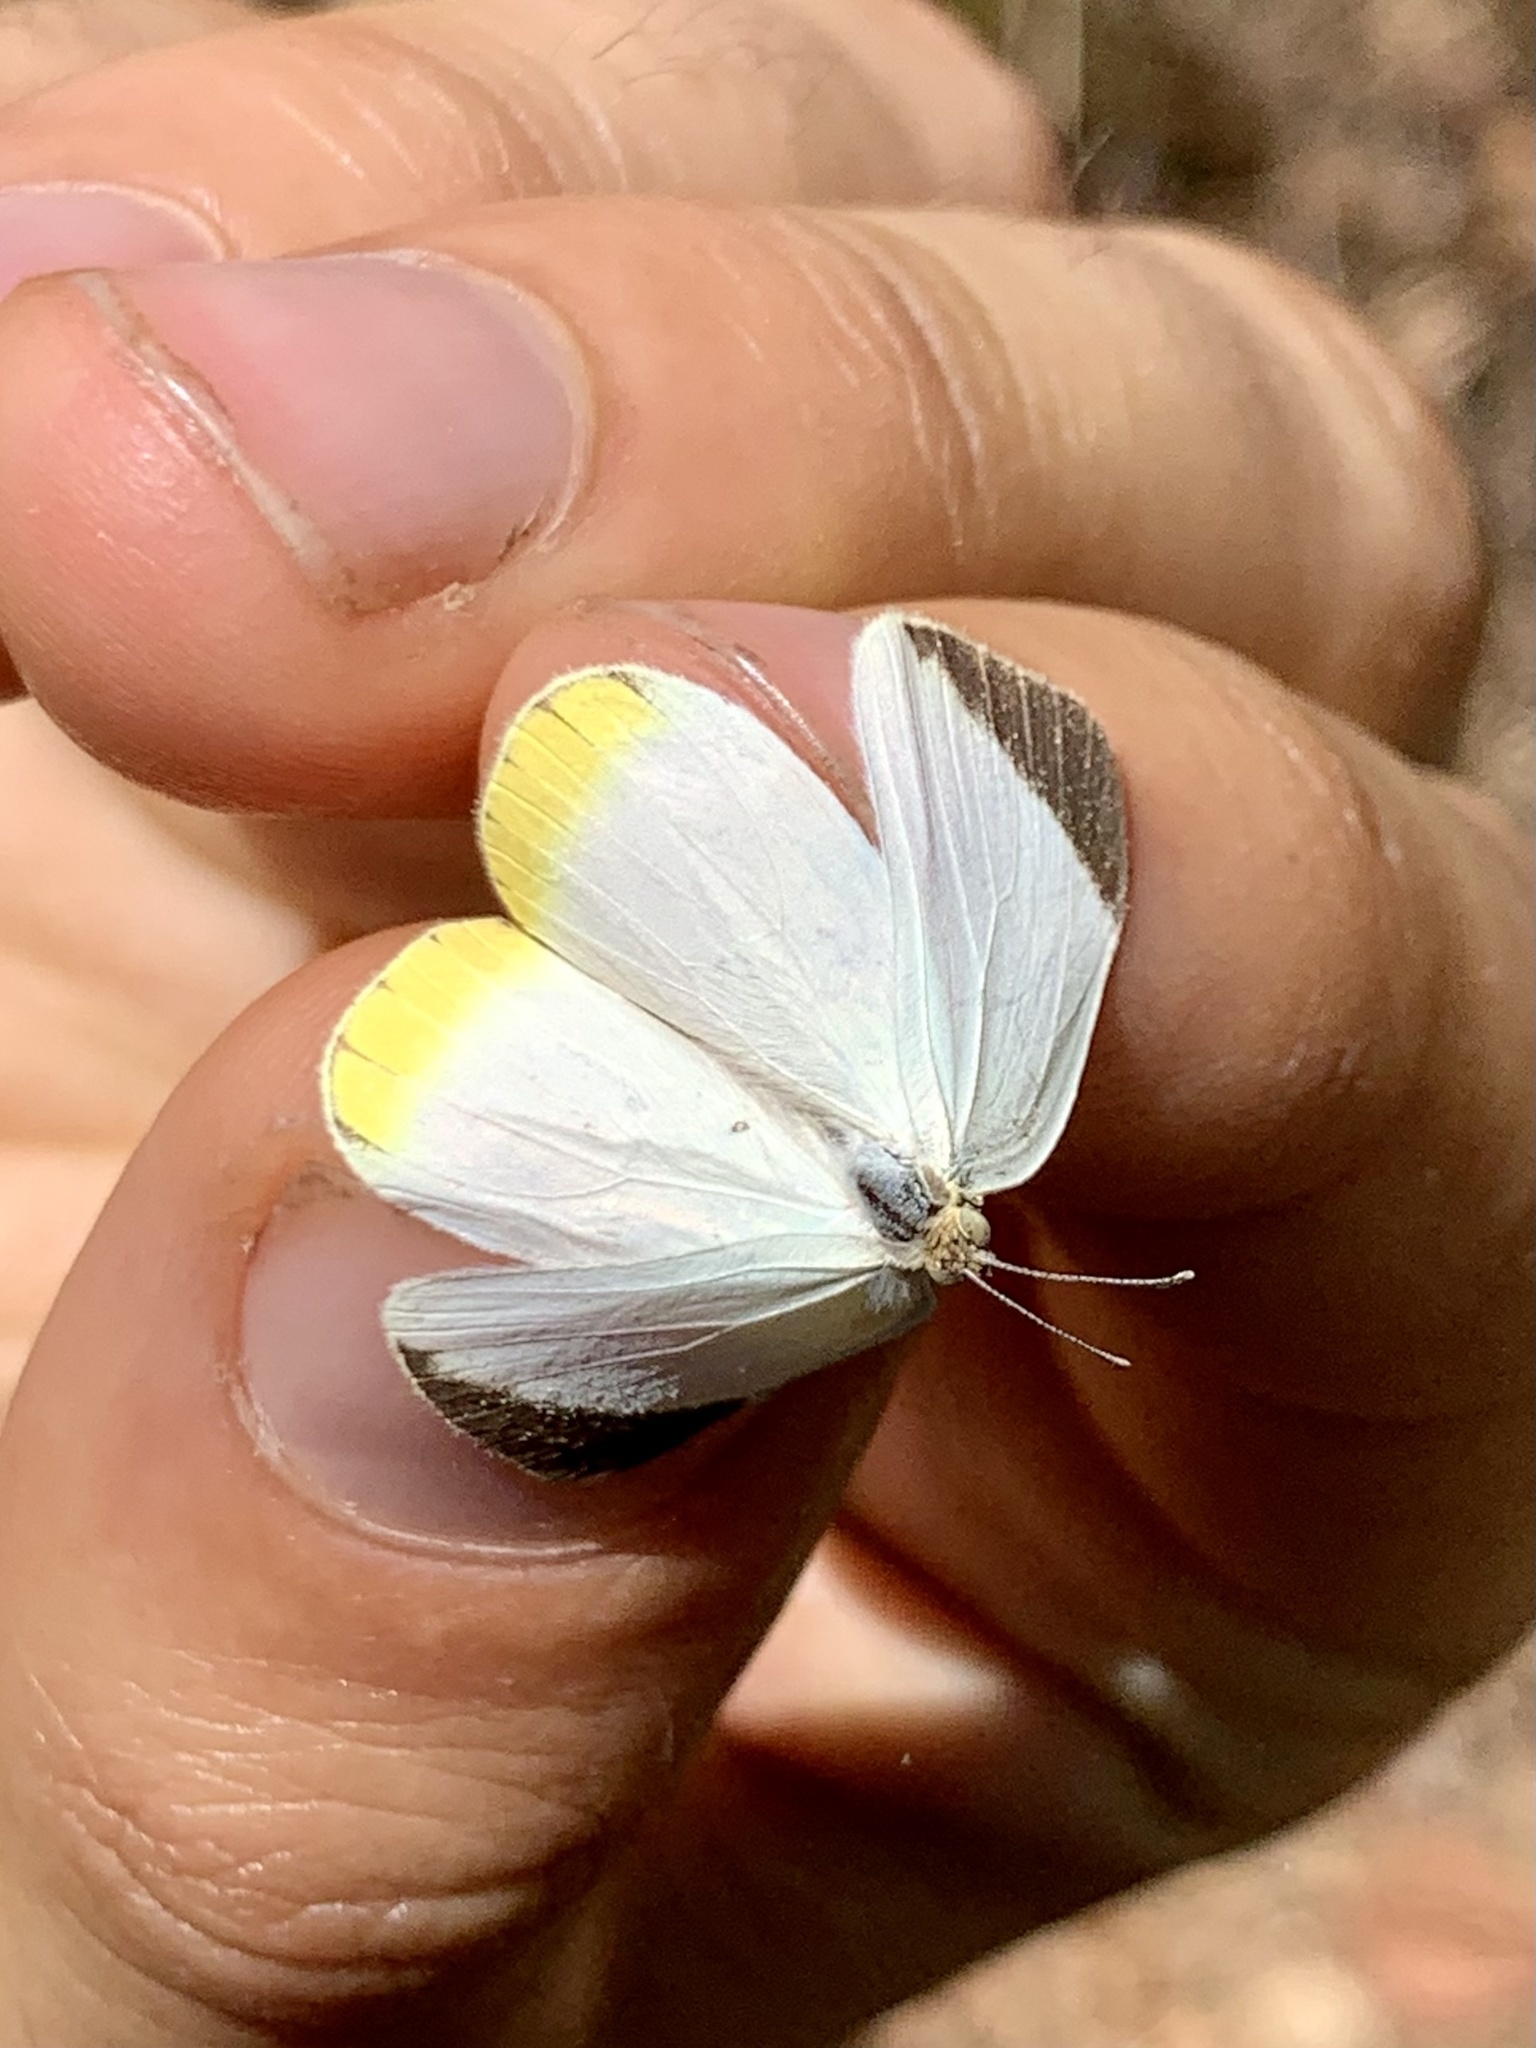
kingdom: Animalia
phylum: Arthropoda
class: Insecta
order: Lepidoptera
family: Pieridae
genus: Abaeis
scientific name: Abaeis
